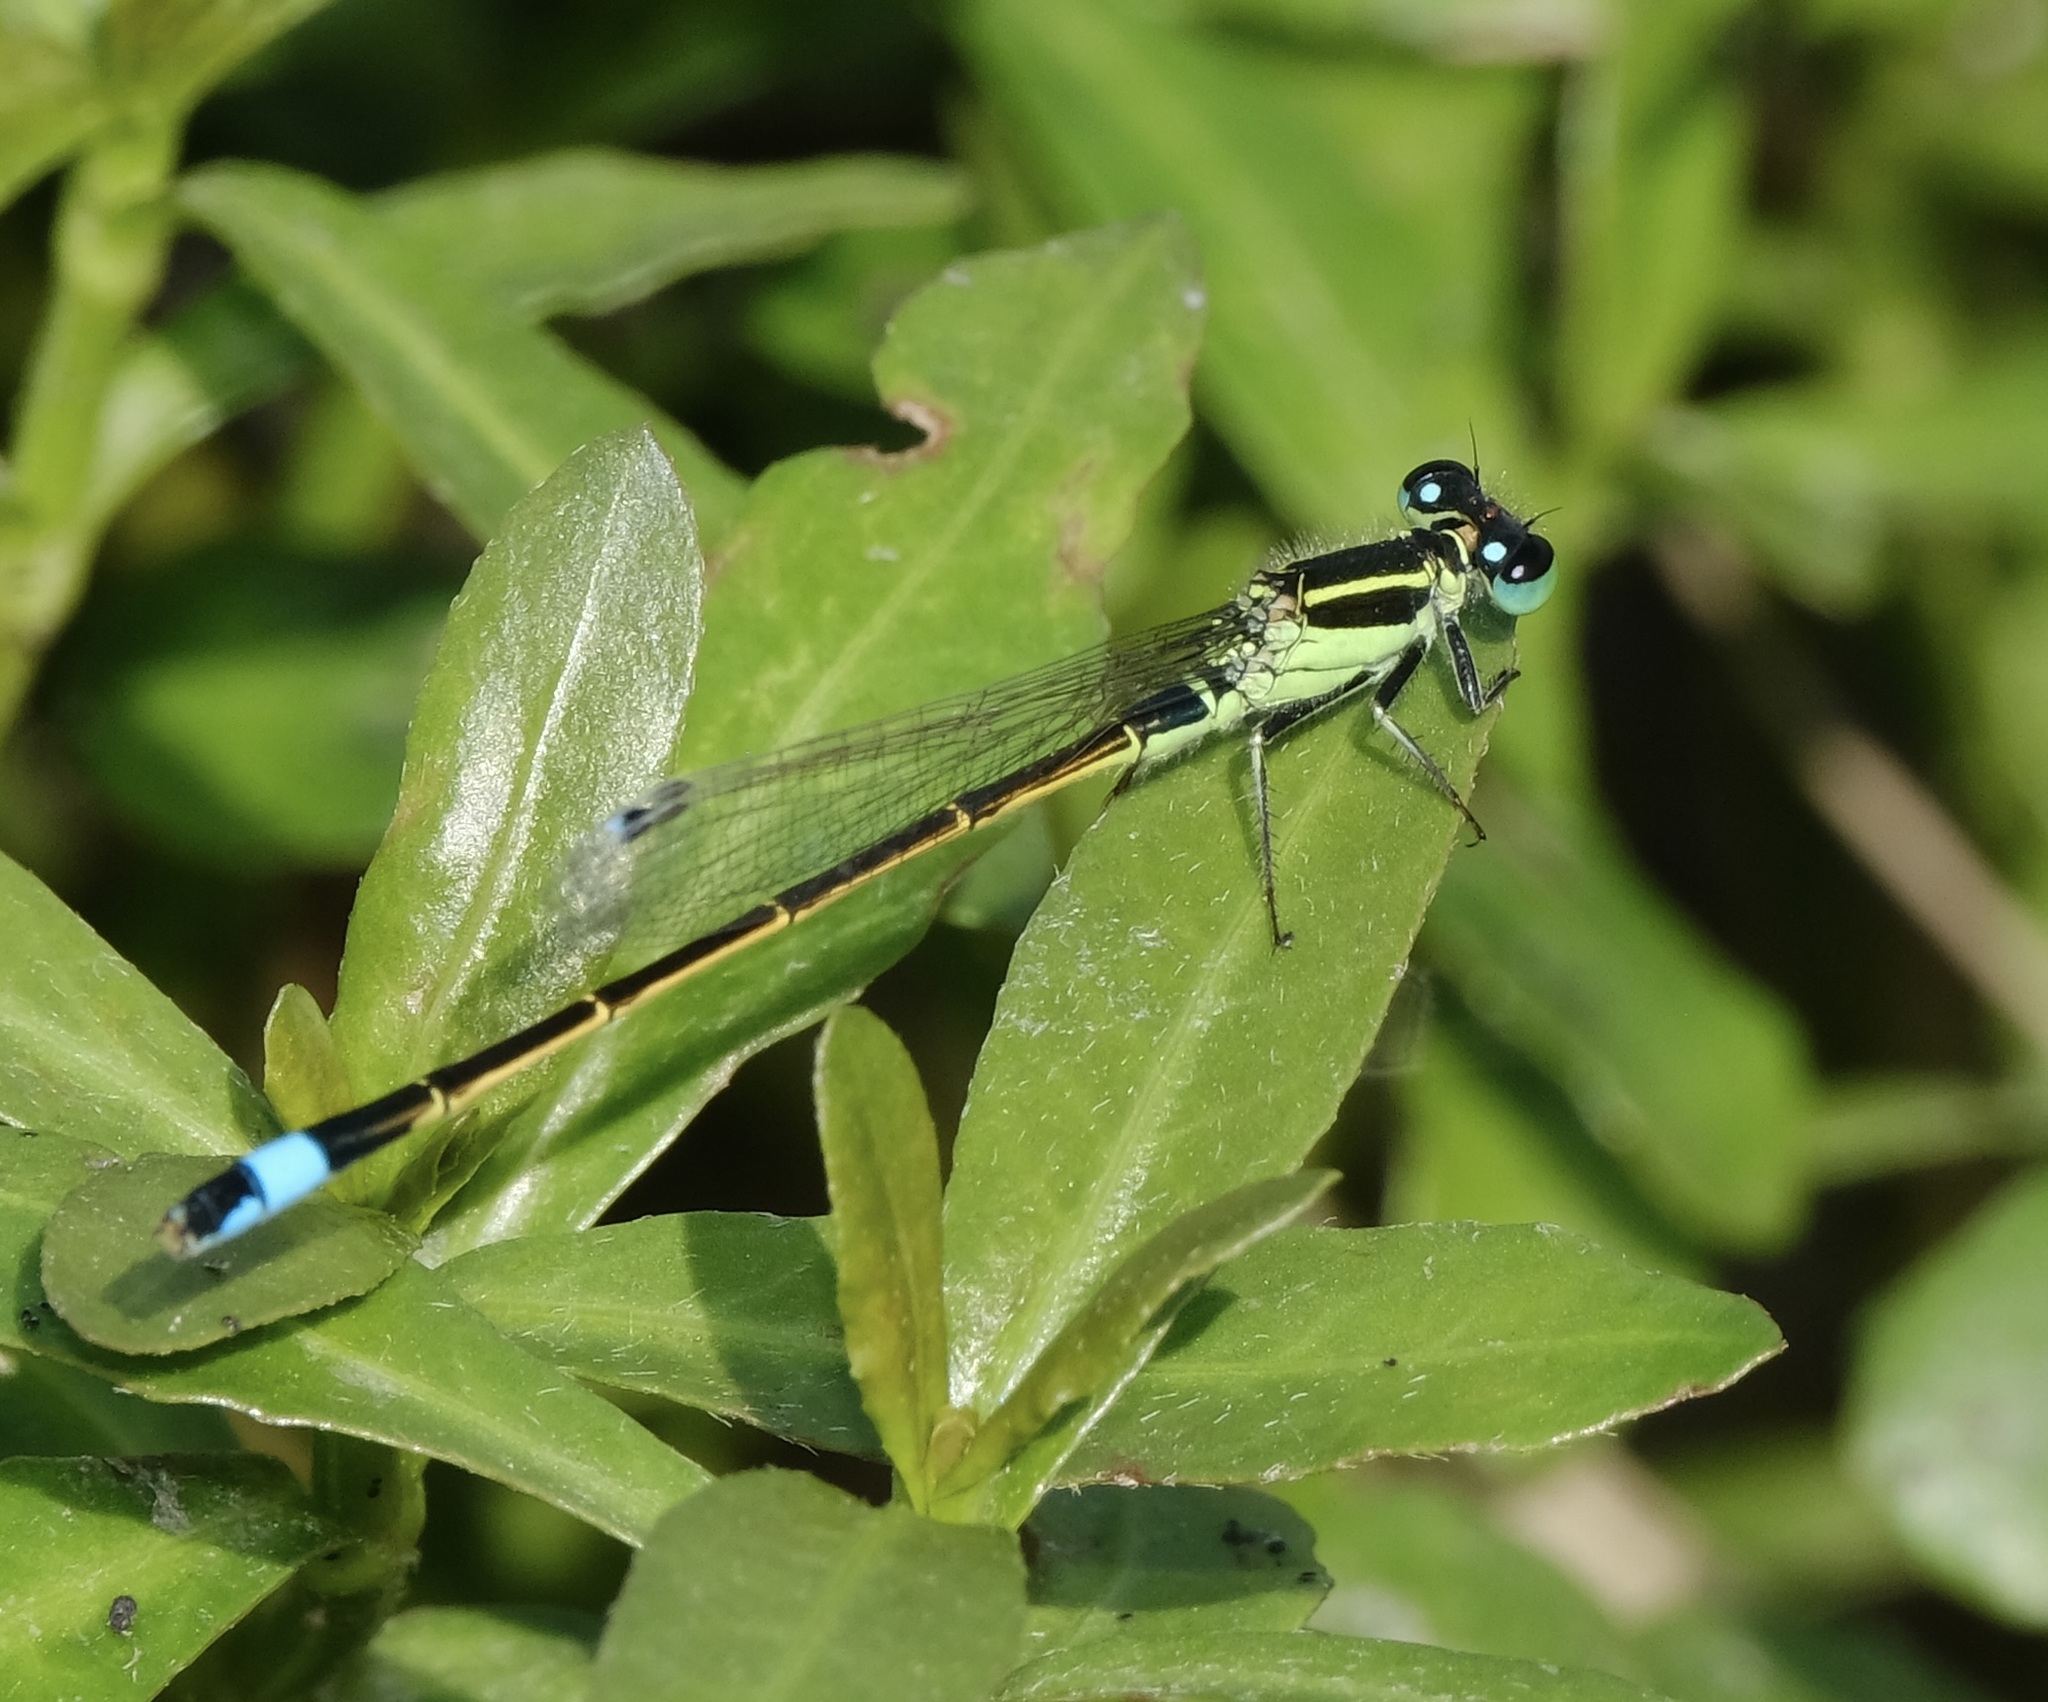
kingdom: Animalia
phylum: Arthropoda
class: Insecta
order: Odonata
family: Coenagrionidae
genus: Ischnura
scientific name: Ischnura ramburii
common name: Rambur's forktail
